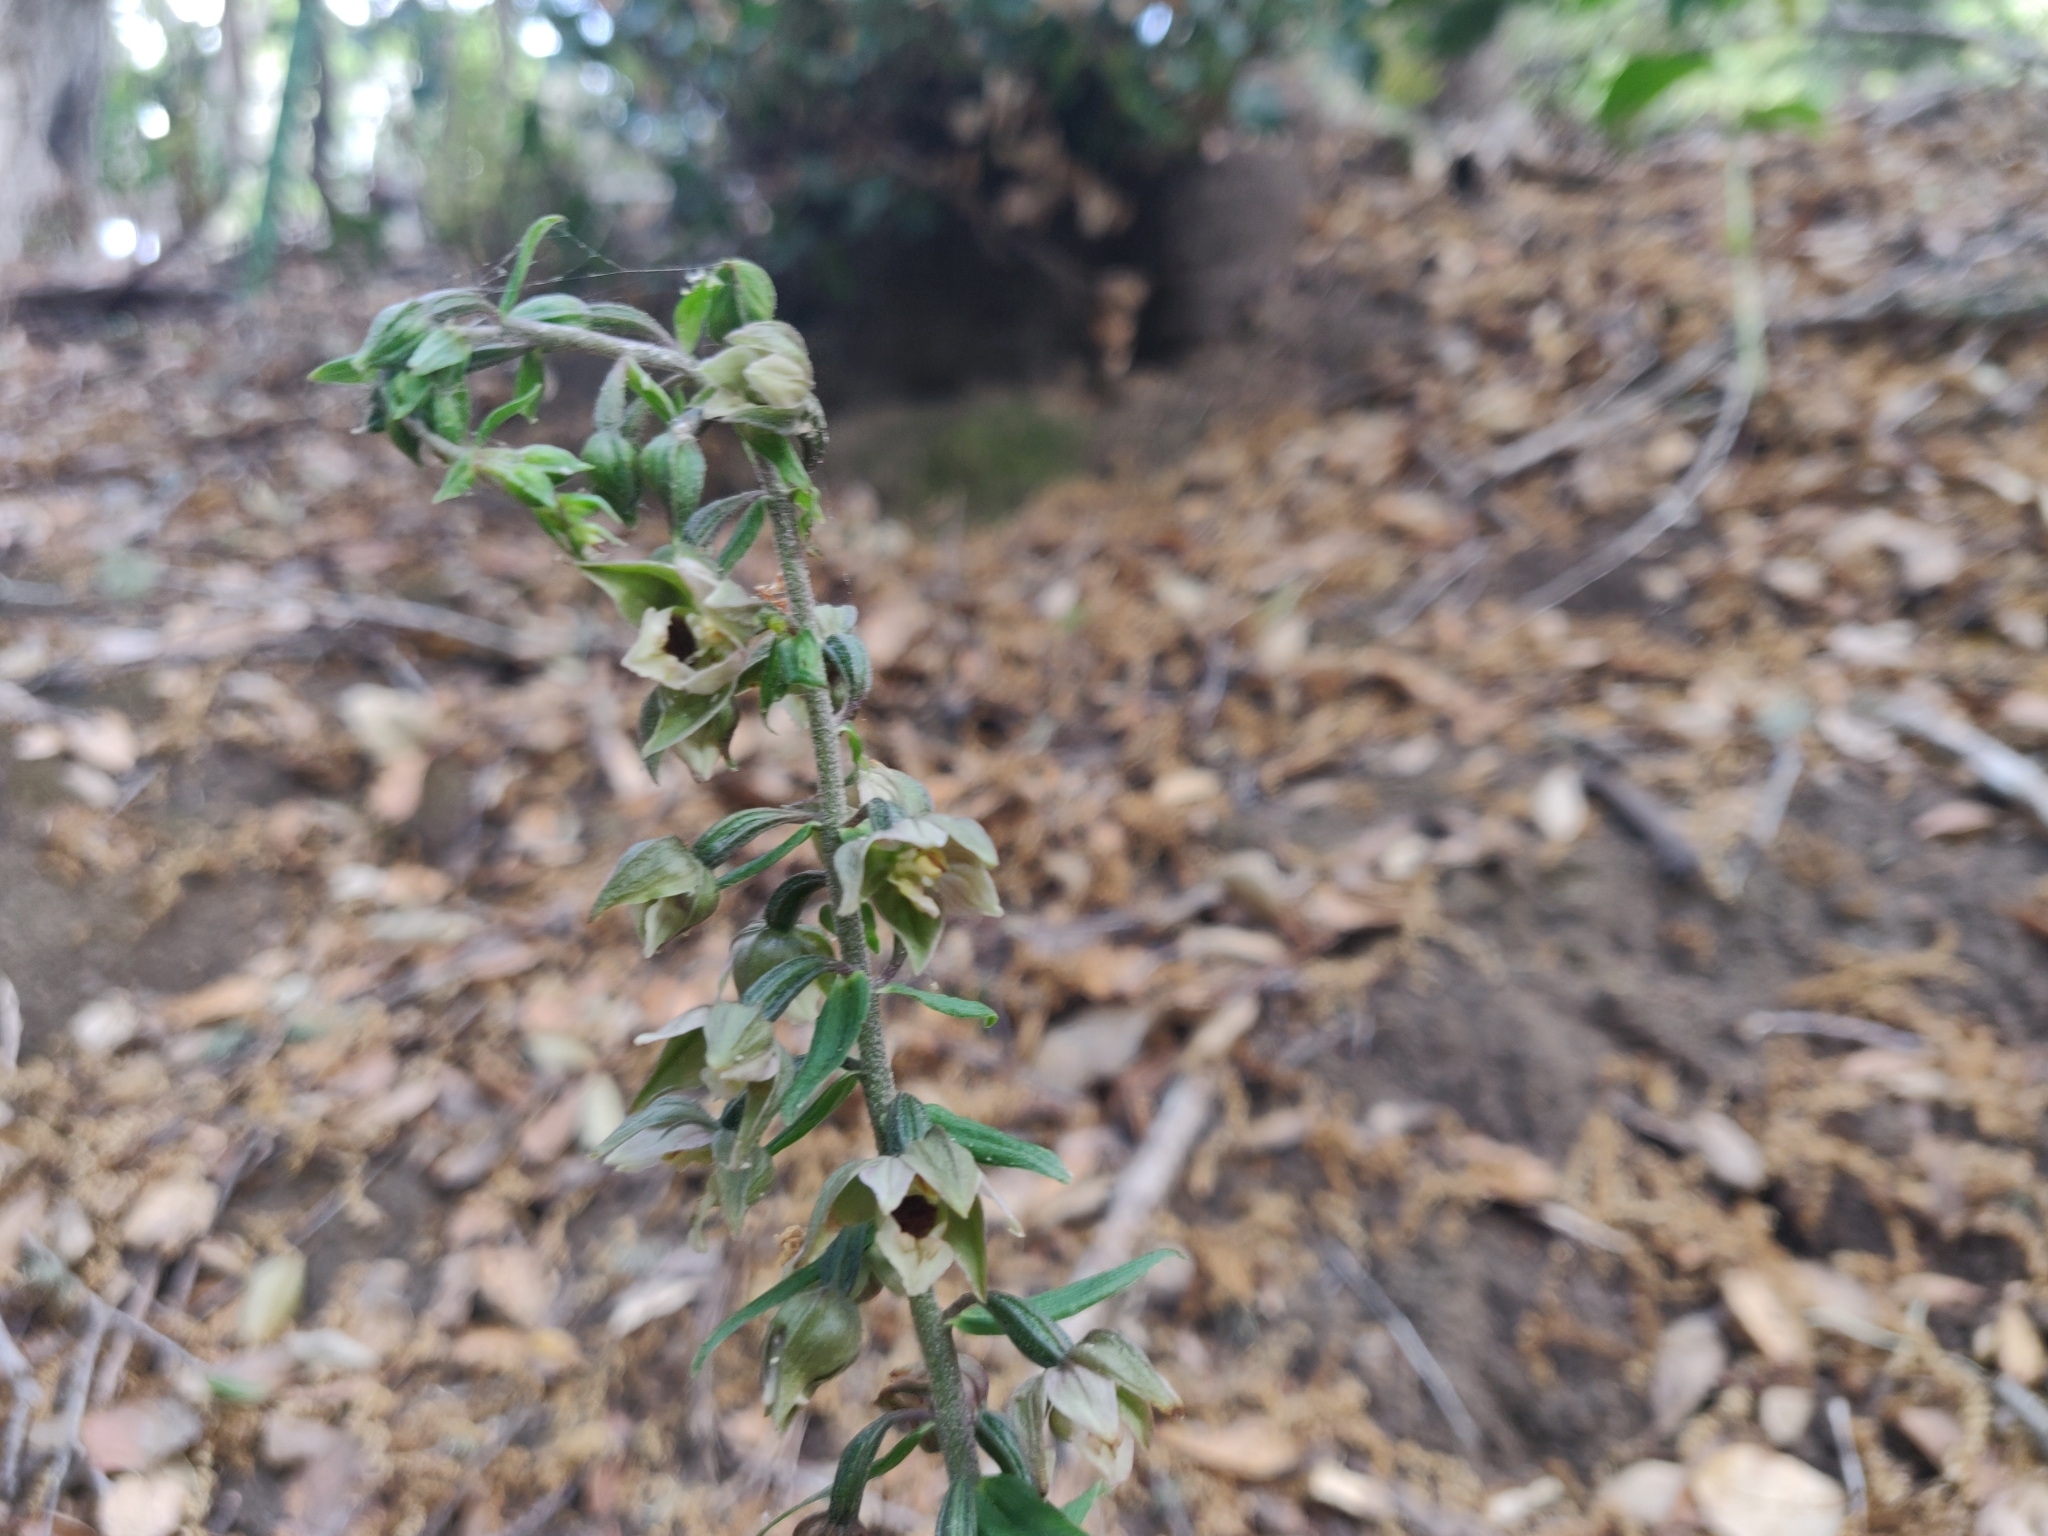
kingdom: Plantae
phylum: Tracheophyta
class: Liliopsida
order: Asparagales
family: Orchidaceae
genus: Epipactis
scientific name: Epipactis helleborine
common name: Broad-leaved helleborine
